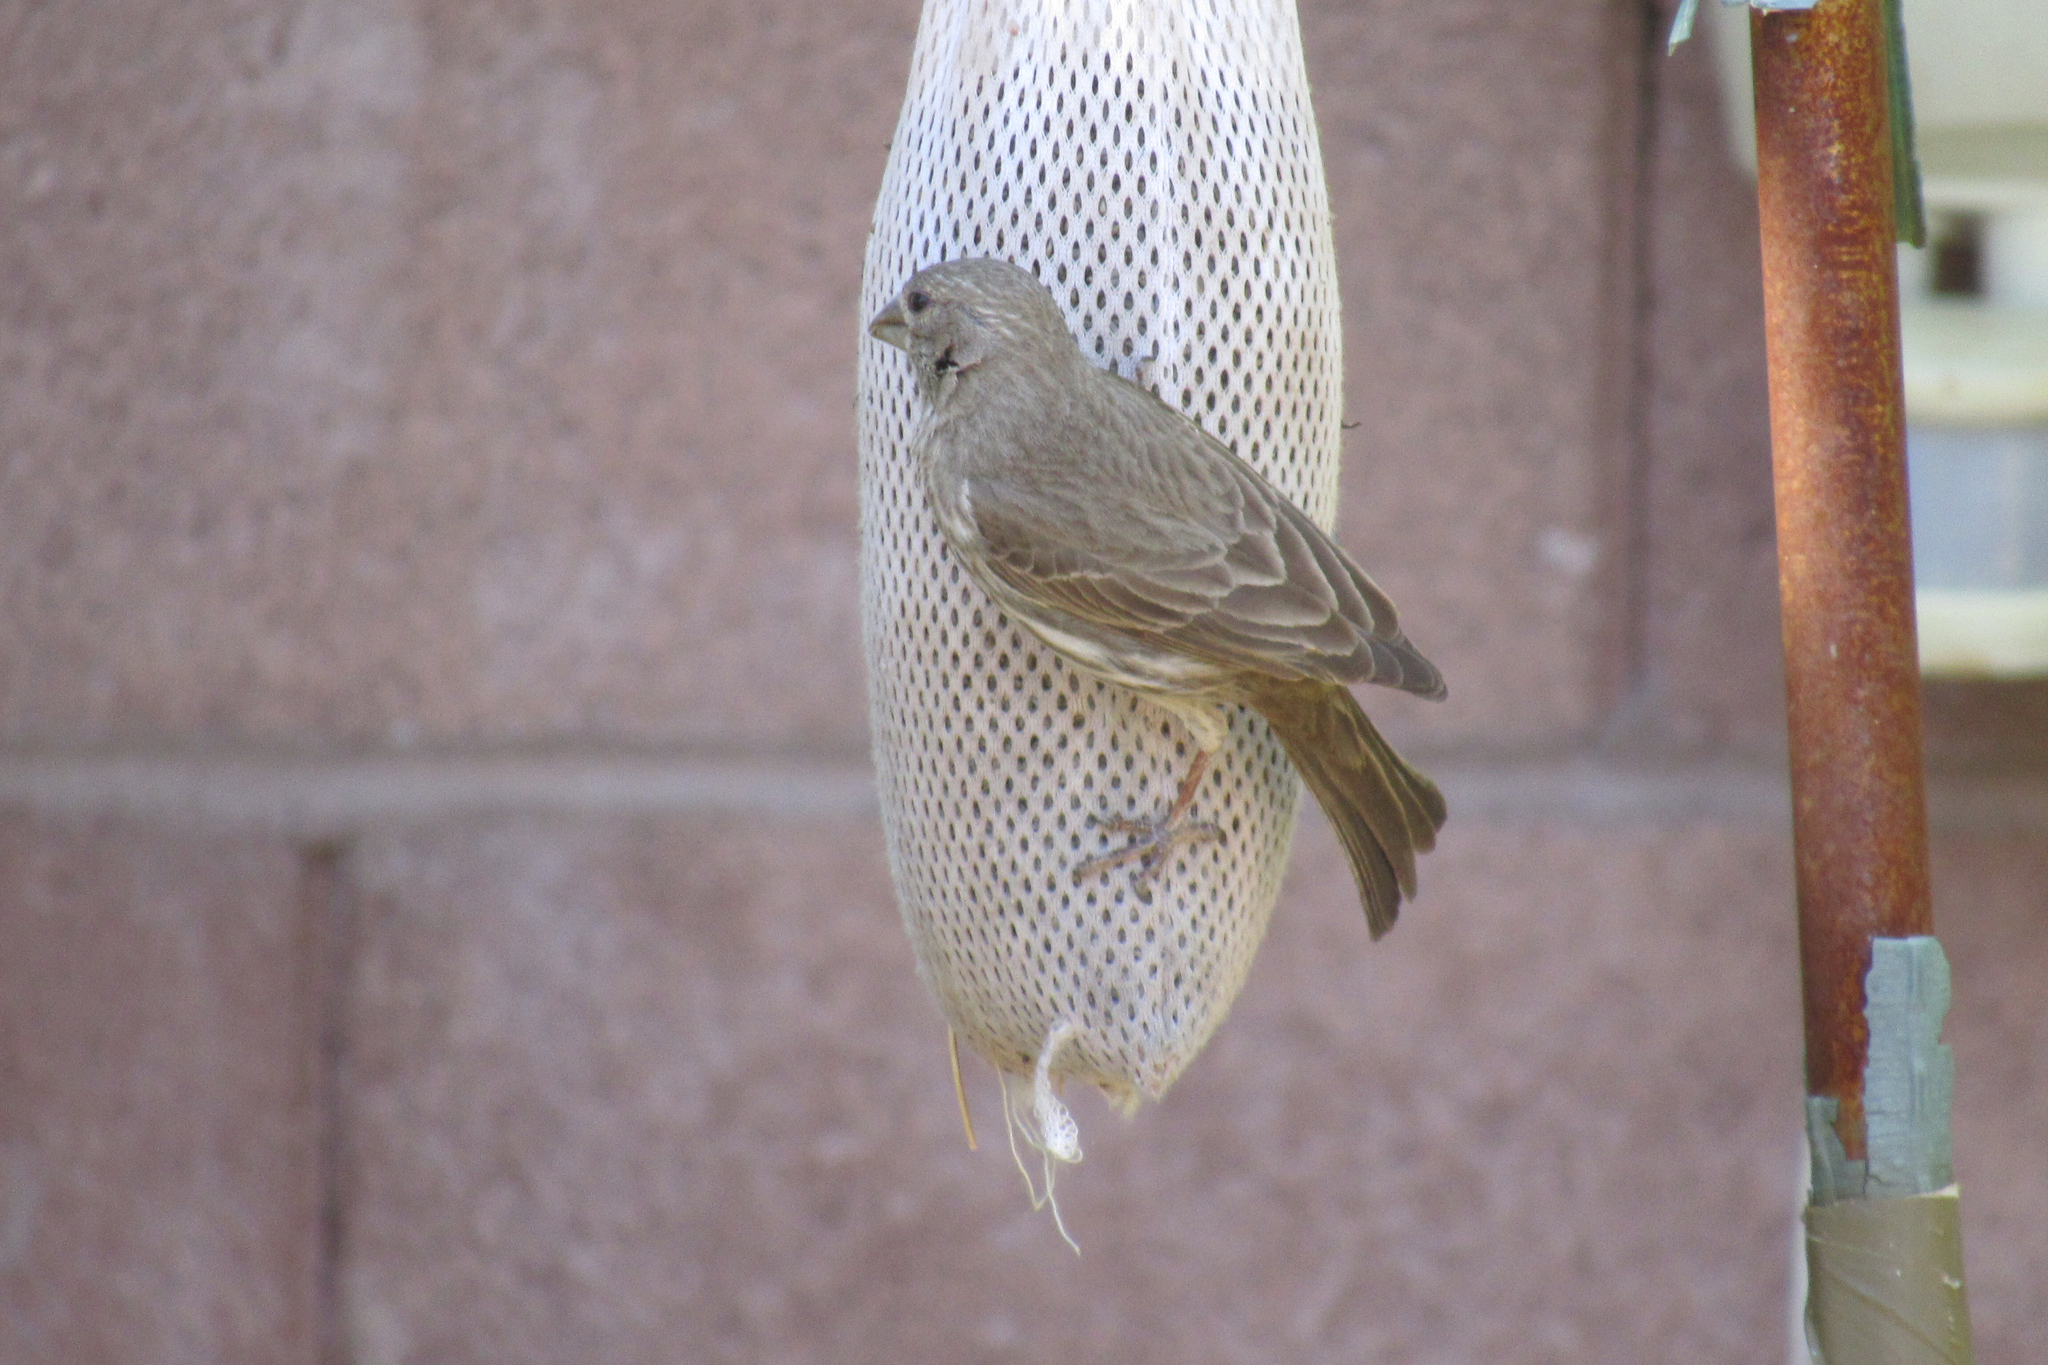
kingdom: Animalia
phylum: Chordata
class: Aves
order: Passeriformes
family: Fringillidae
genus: Haemorhous
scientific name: Haemorhous mexicanus
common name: House finch
